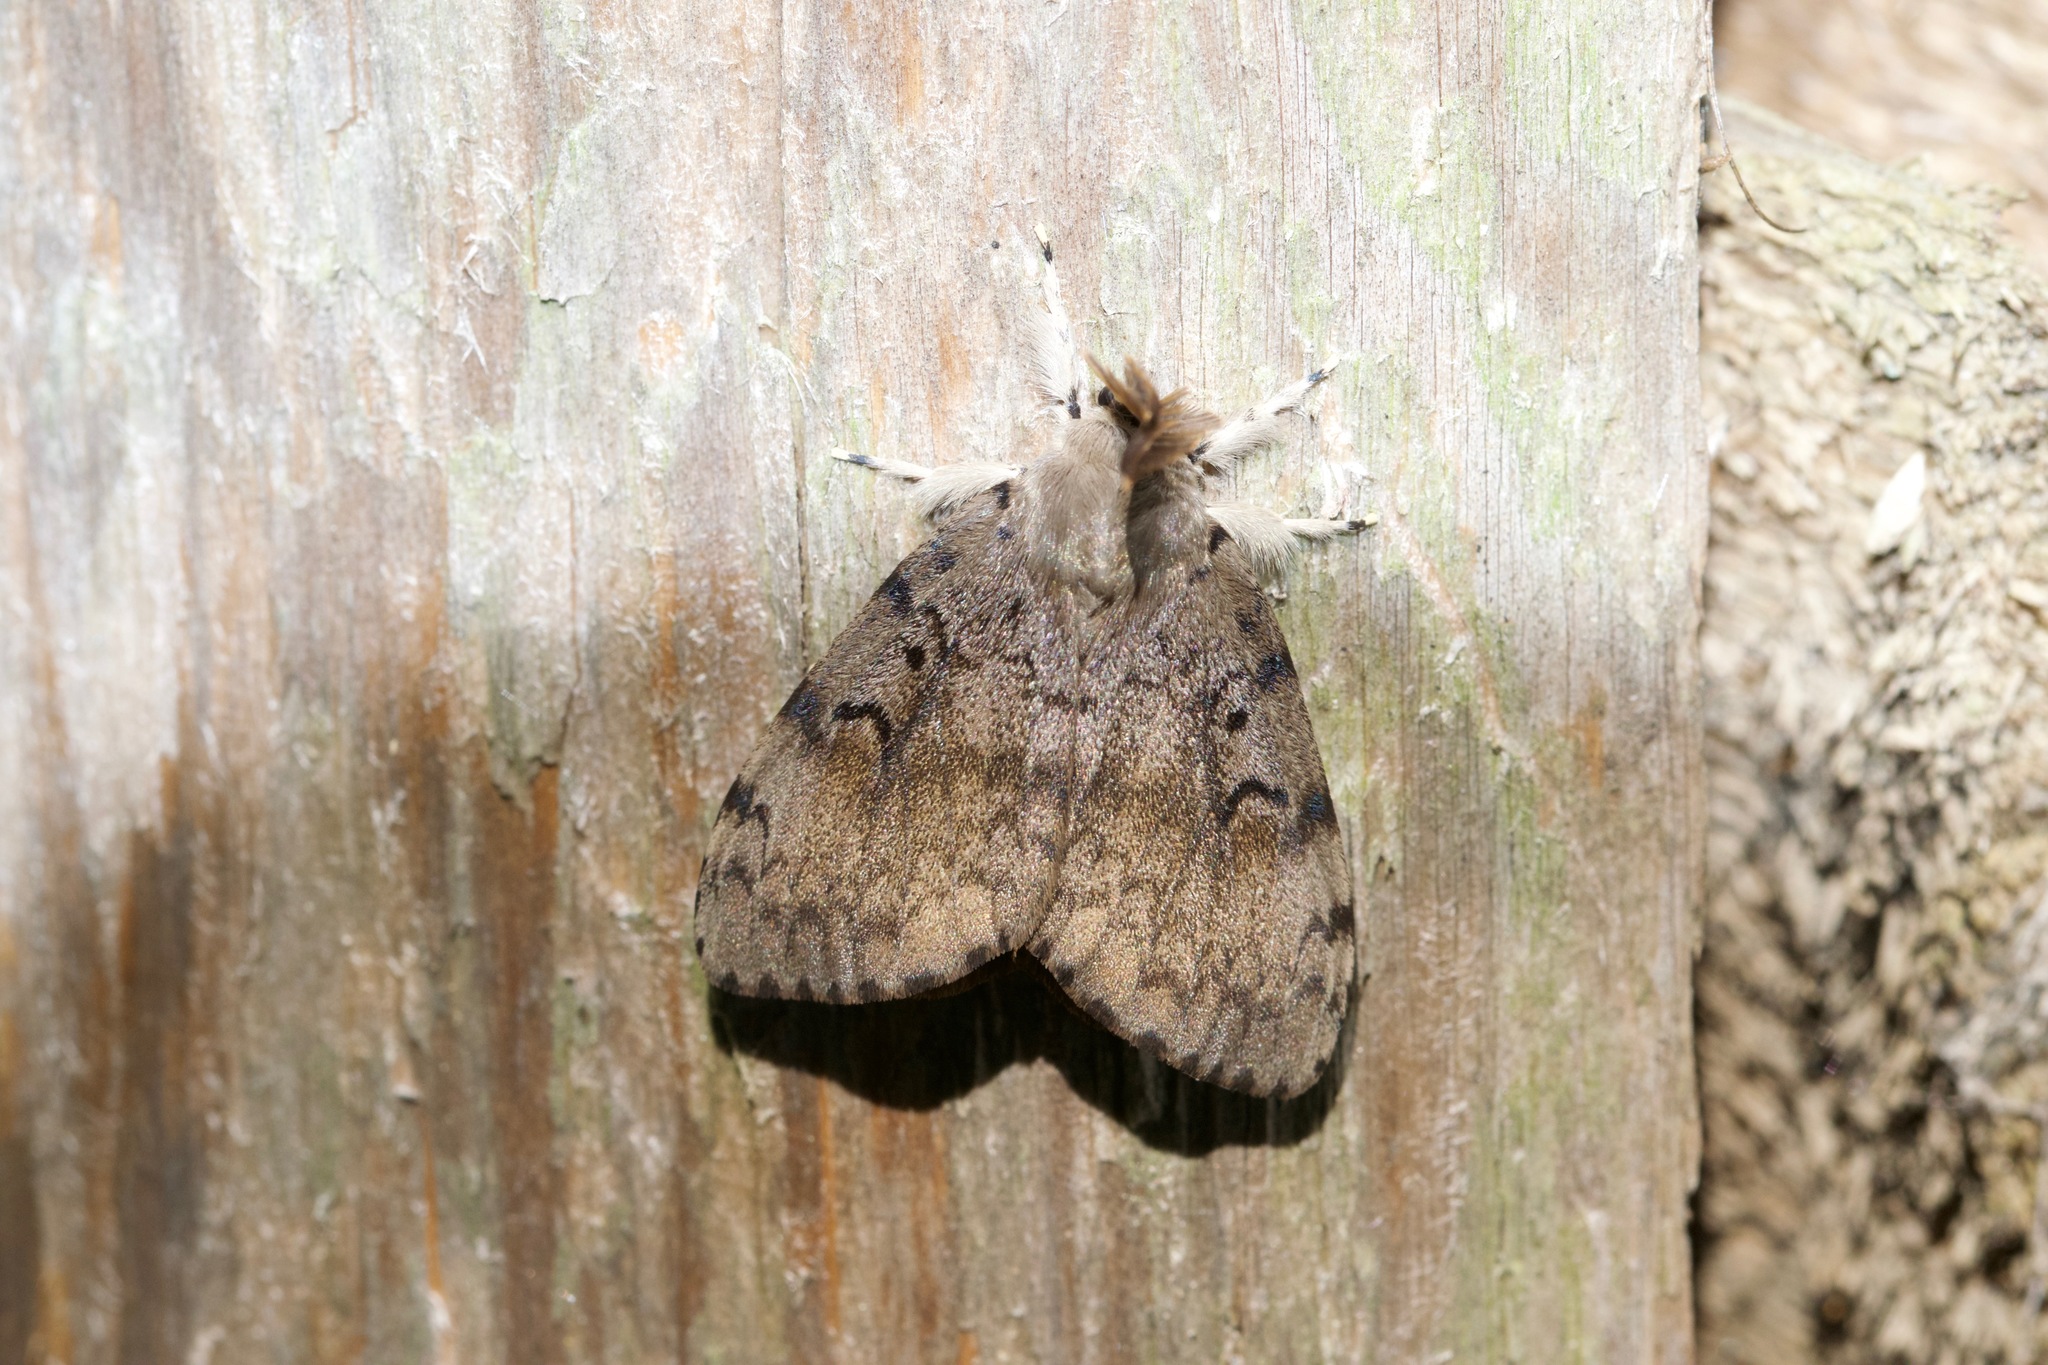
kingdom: Animalia
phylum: Arthropoda
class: Insecta
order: Lepidoptera
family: Erebidae
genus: Lymantria
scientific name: Lymantria dispar
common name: Gypsy moth
